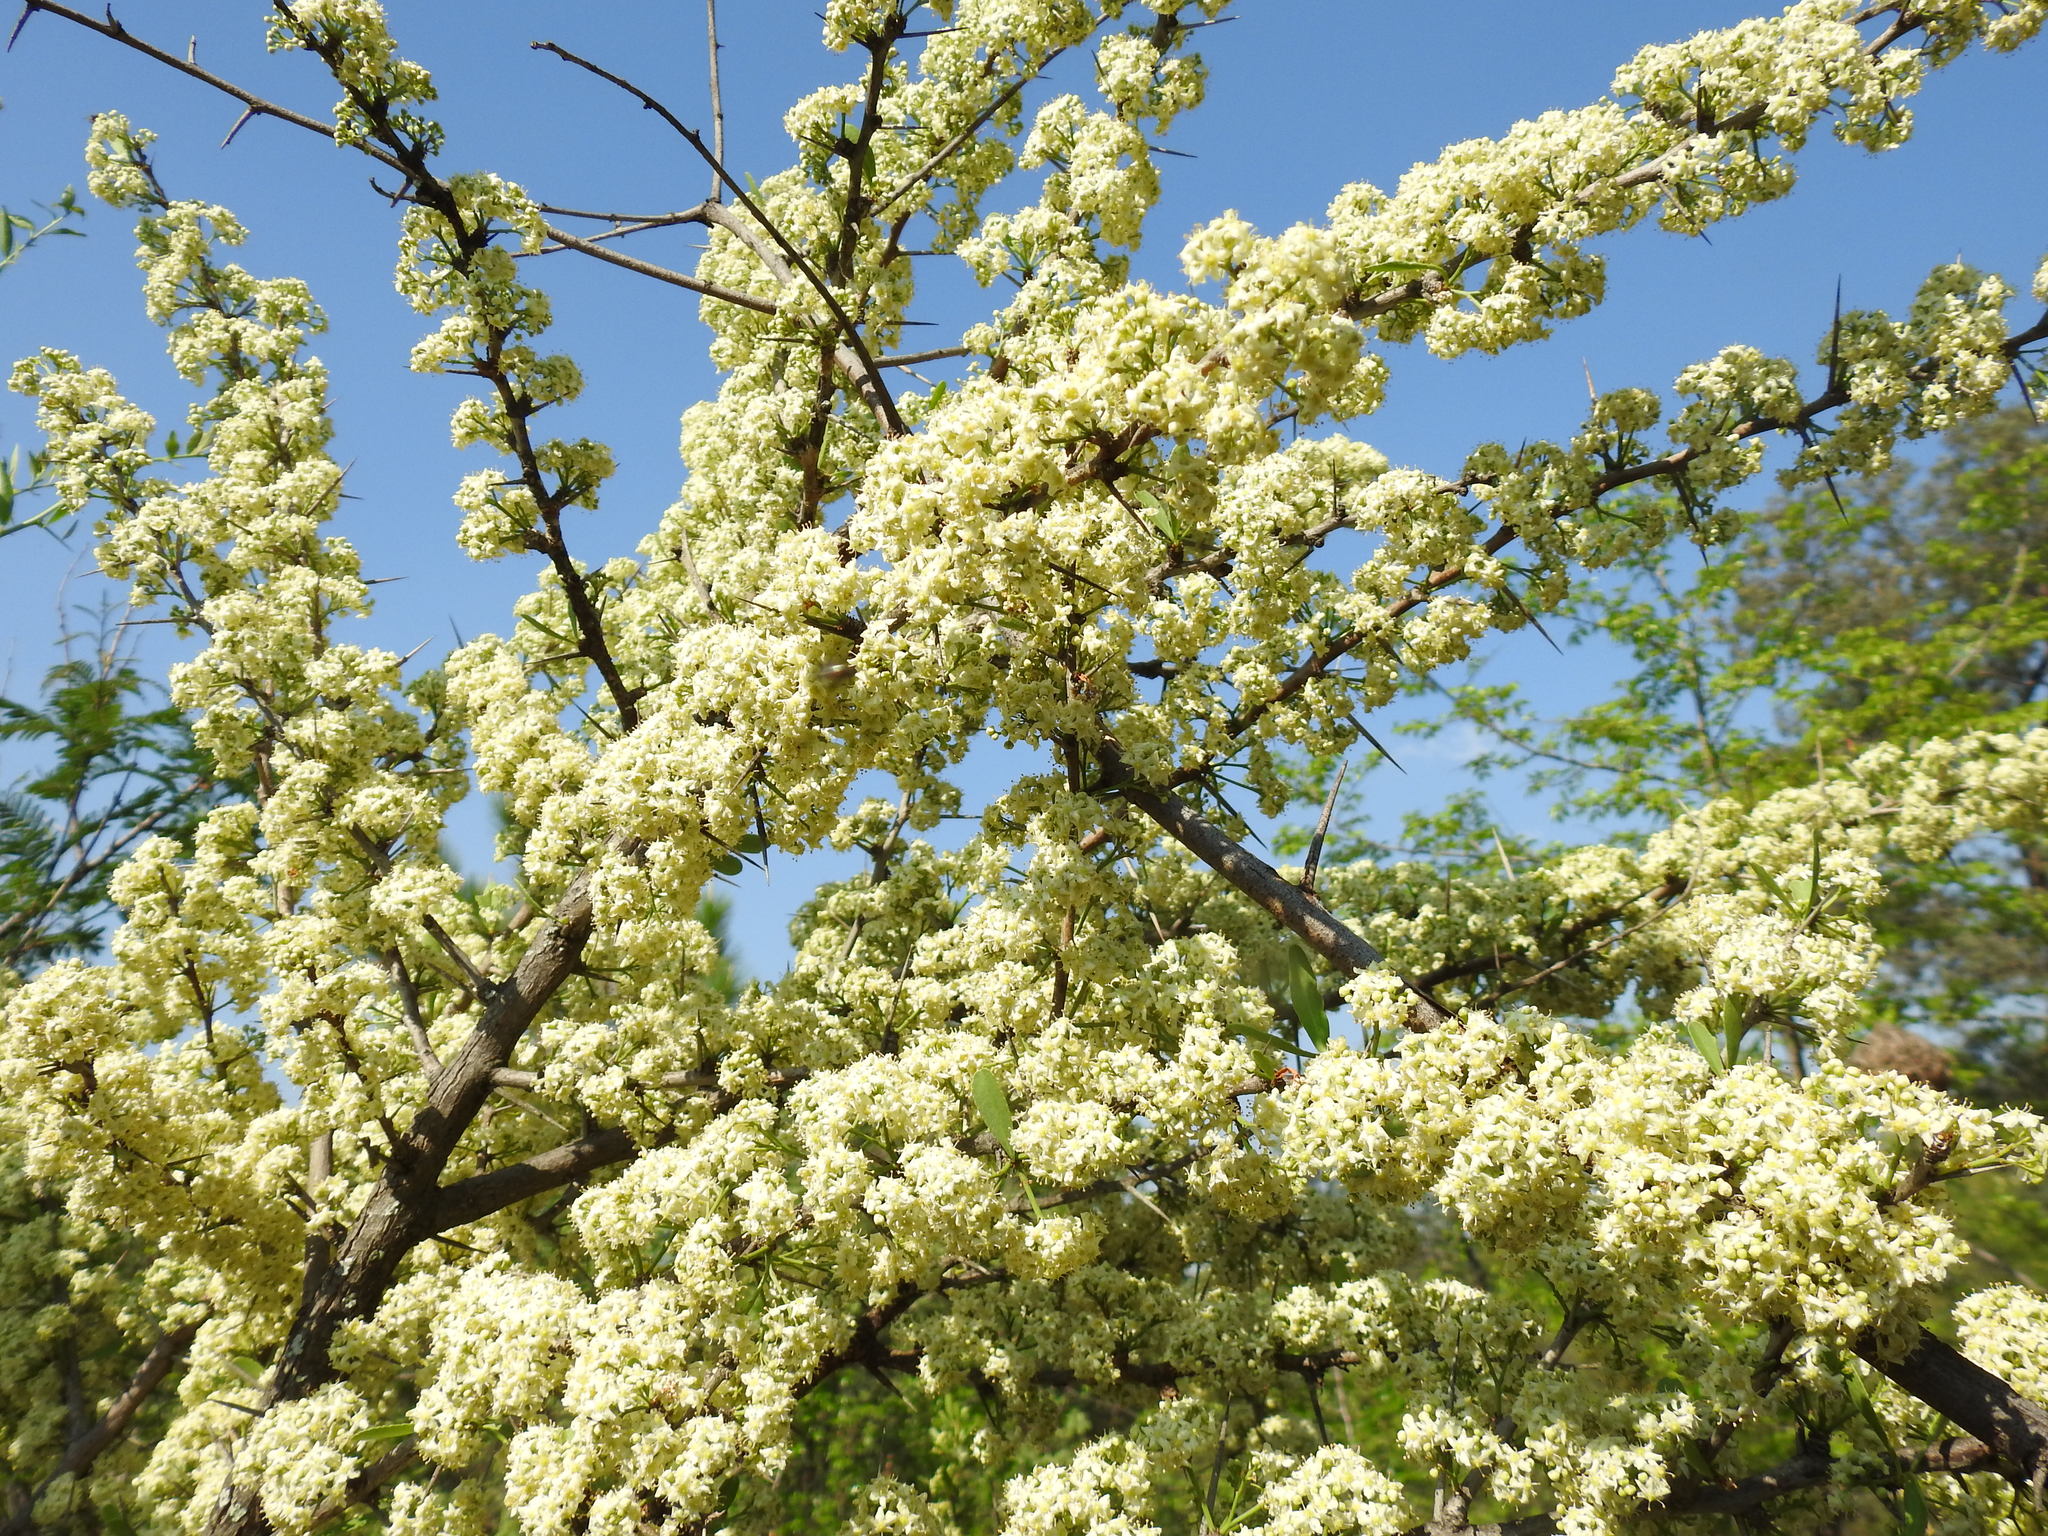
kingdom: Plantae
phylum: Tracheophyta
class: Magnoliopsida
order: Celastrales
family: Celastraceae
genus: Gymnosporia
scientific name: Gymnosporia buxifolia
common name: Common spike-thorn
